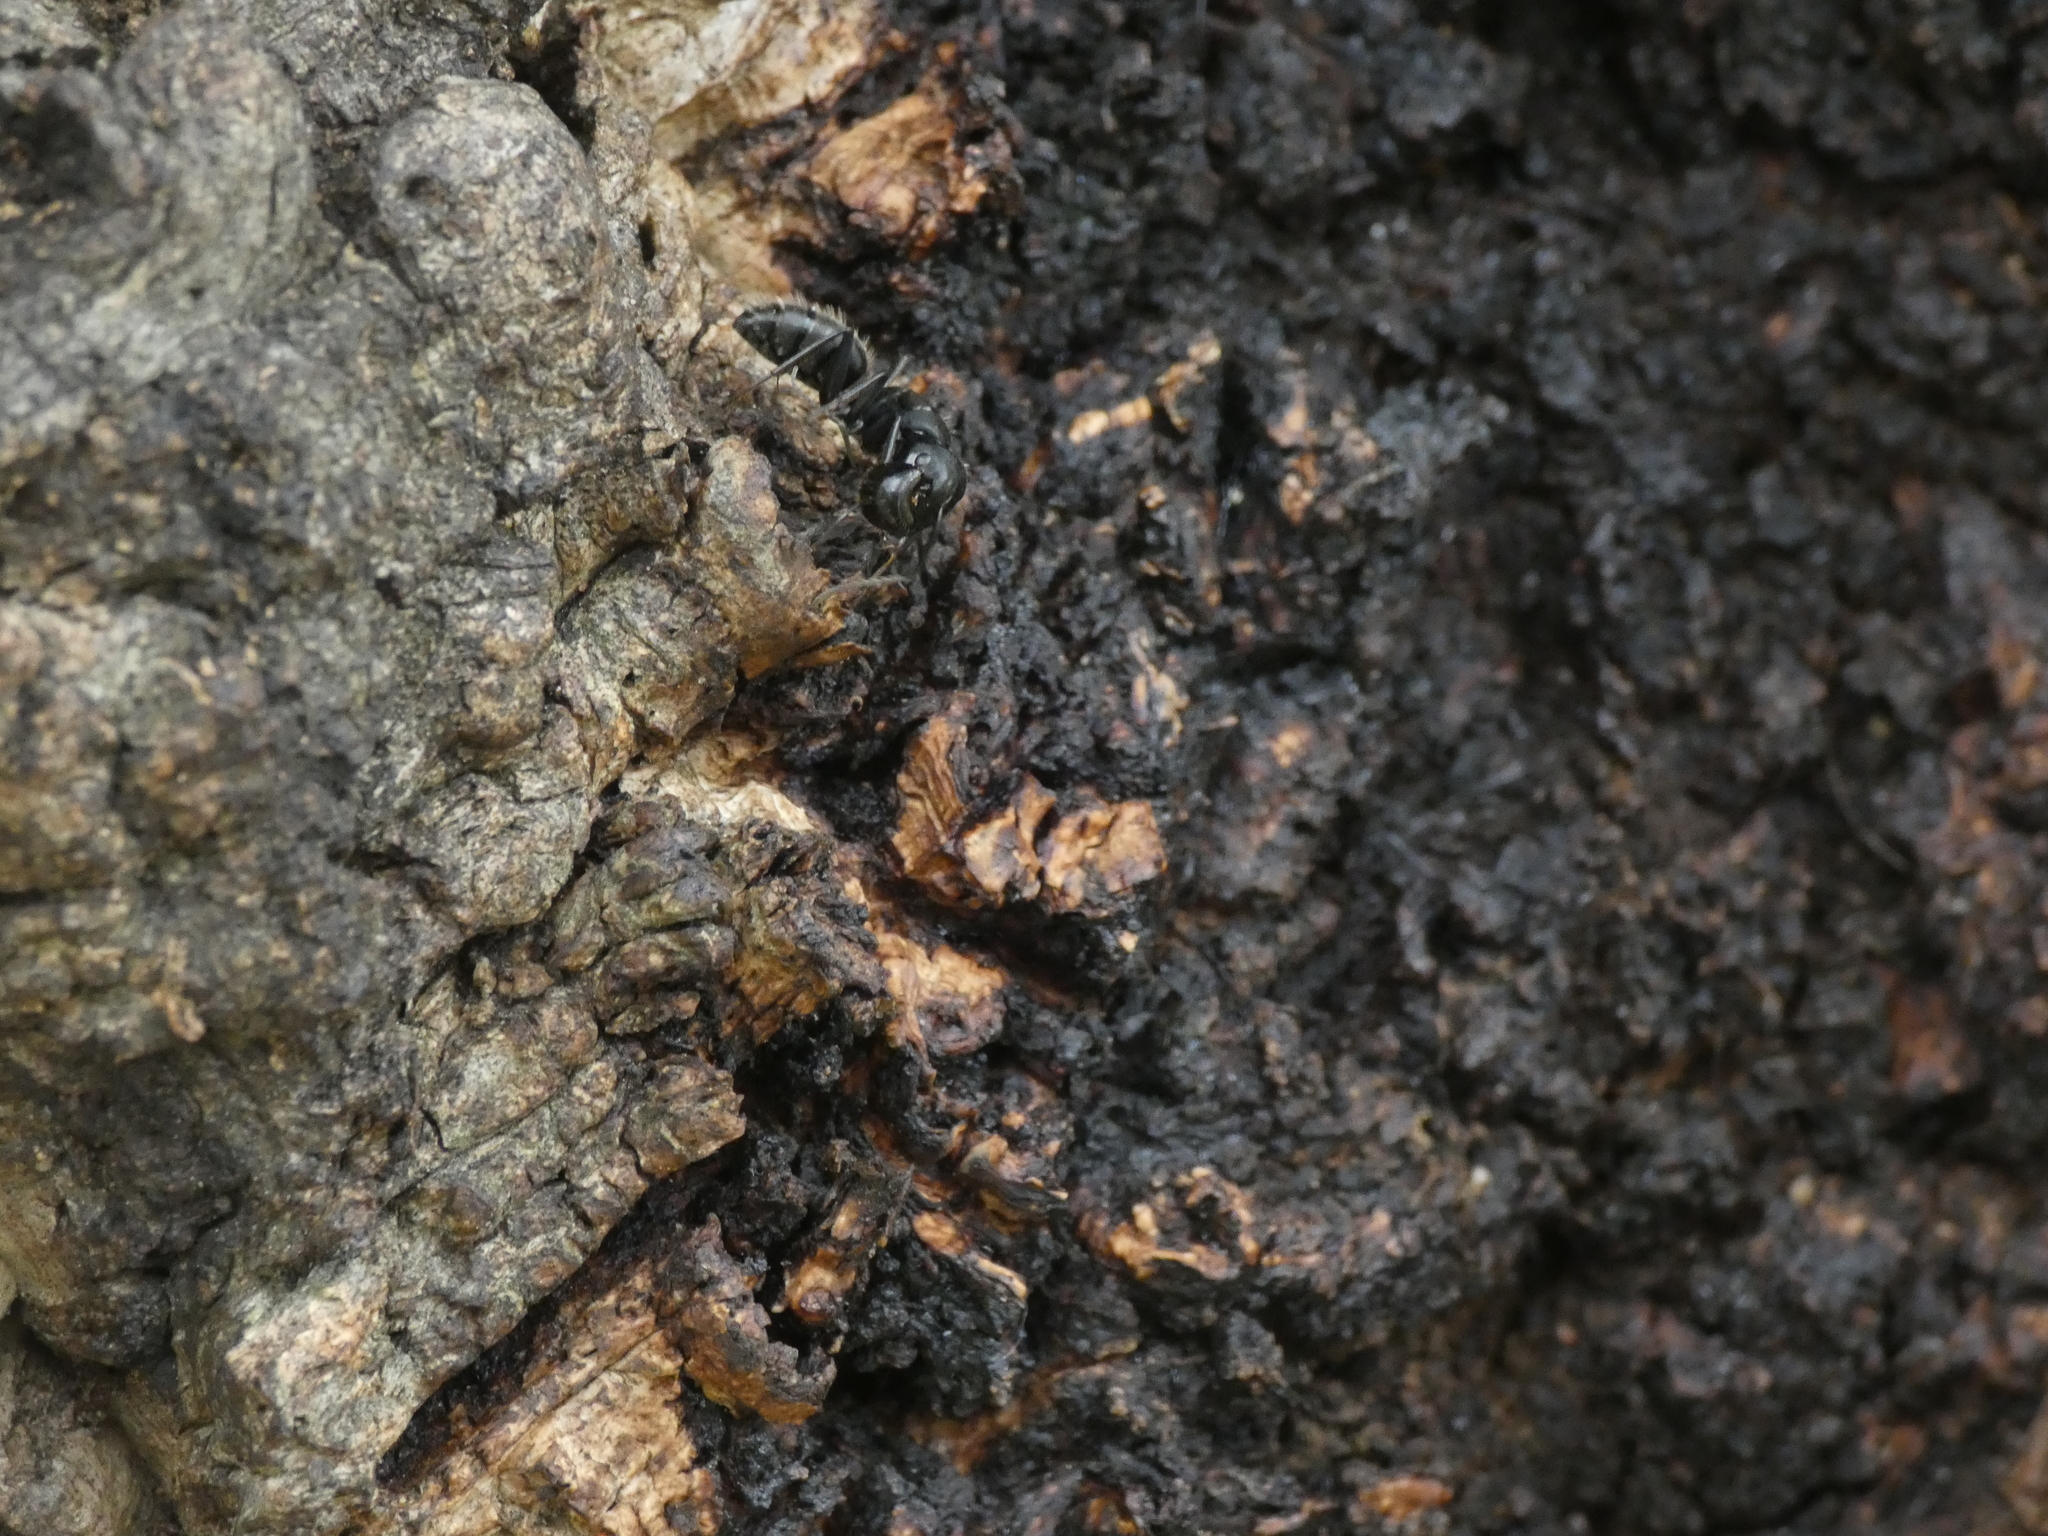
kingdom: Animalia
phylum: Arthropoda
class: Insecta
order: Hymenoptera
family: Formicidae
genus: Camponotus
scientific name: Camponotus vagus
